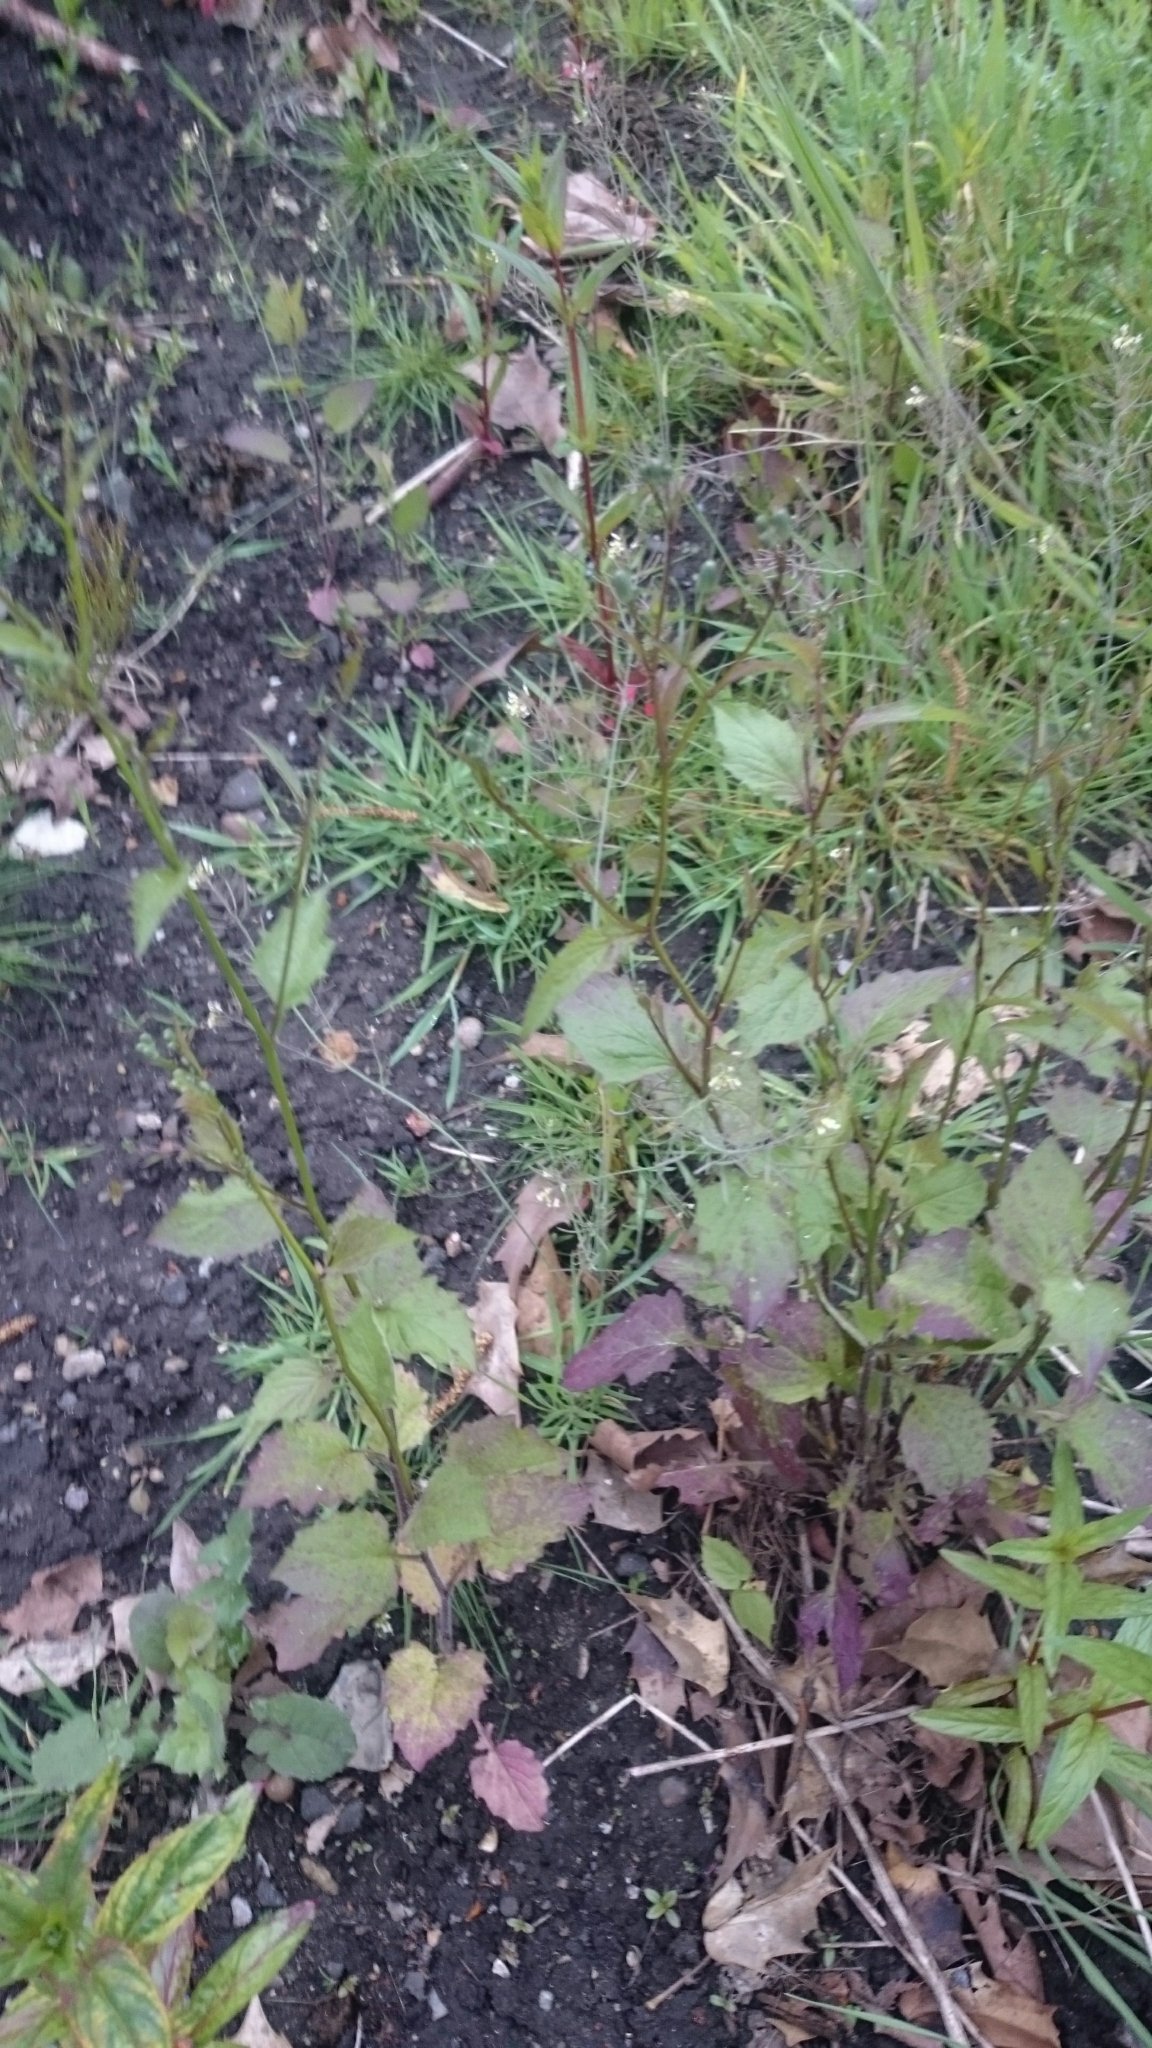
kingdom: Plantae
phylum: Tracheophyta
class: Magnoliopsida
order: Asterales
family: Asteraceae
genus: Lapsana
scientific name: Lapsana communis
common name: Nipplewort
